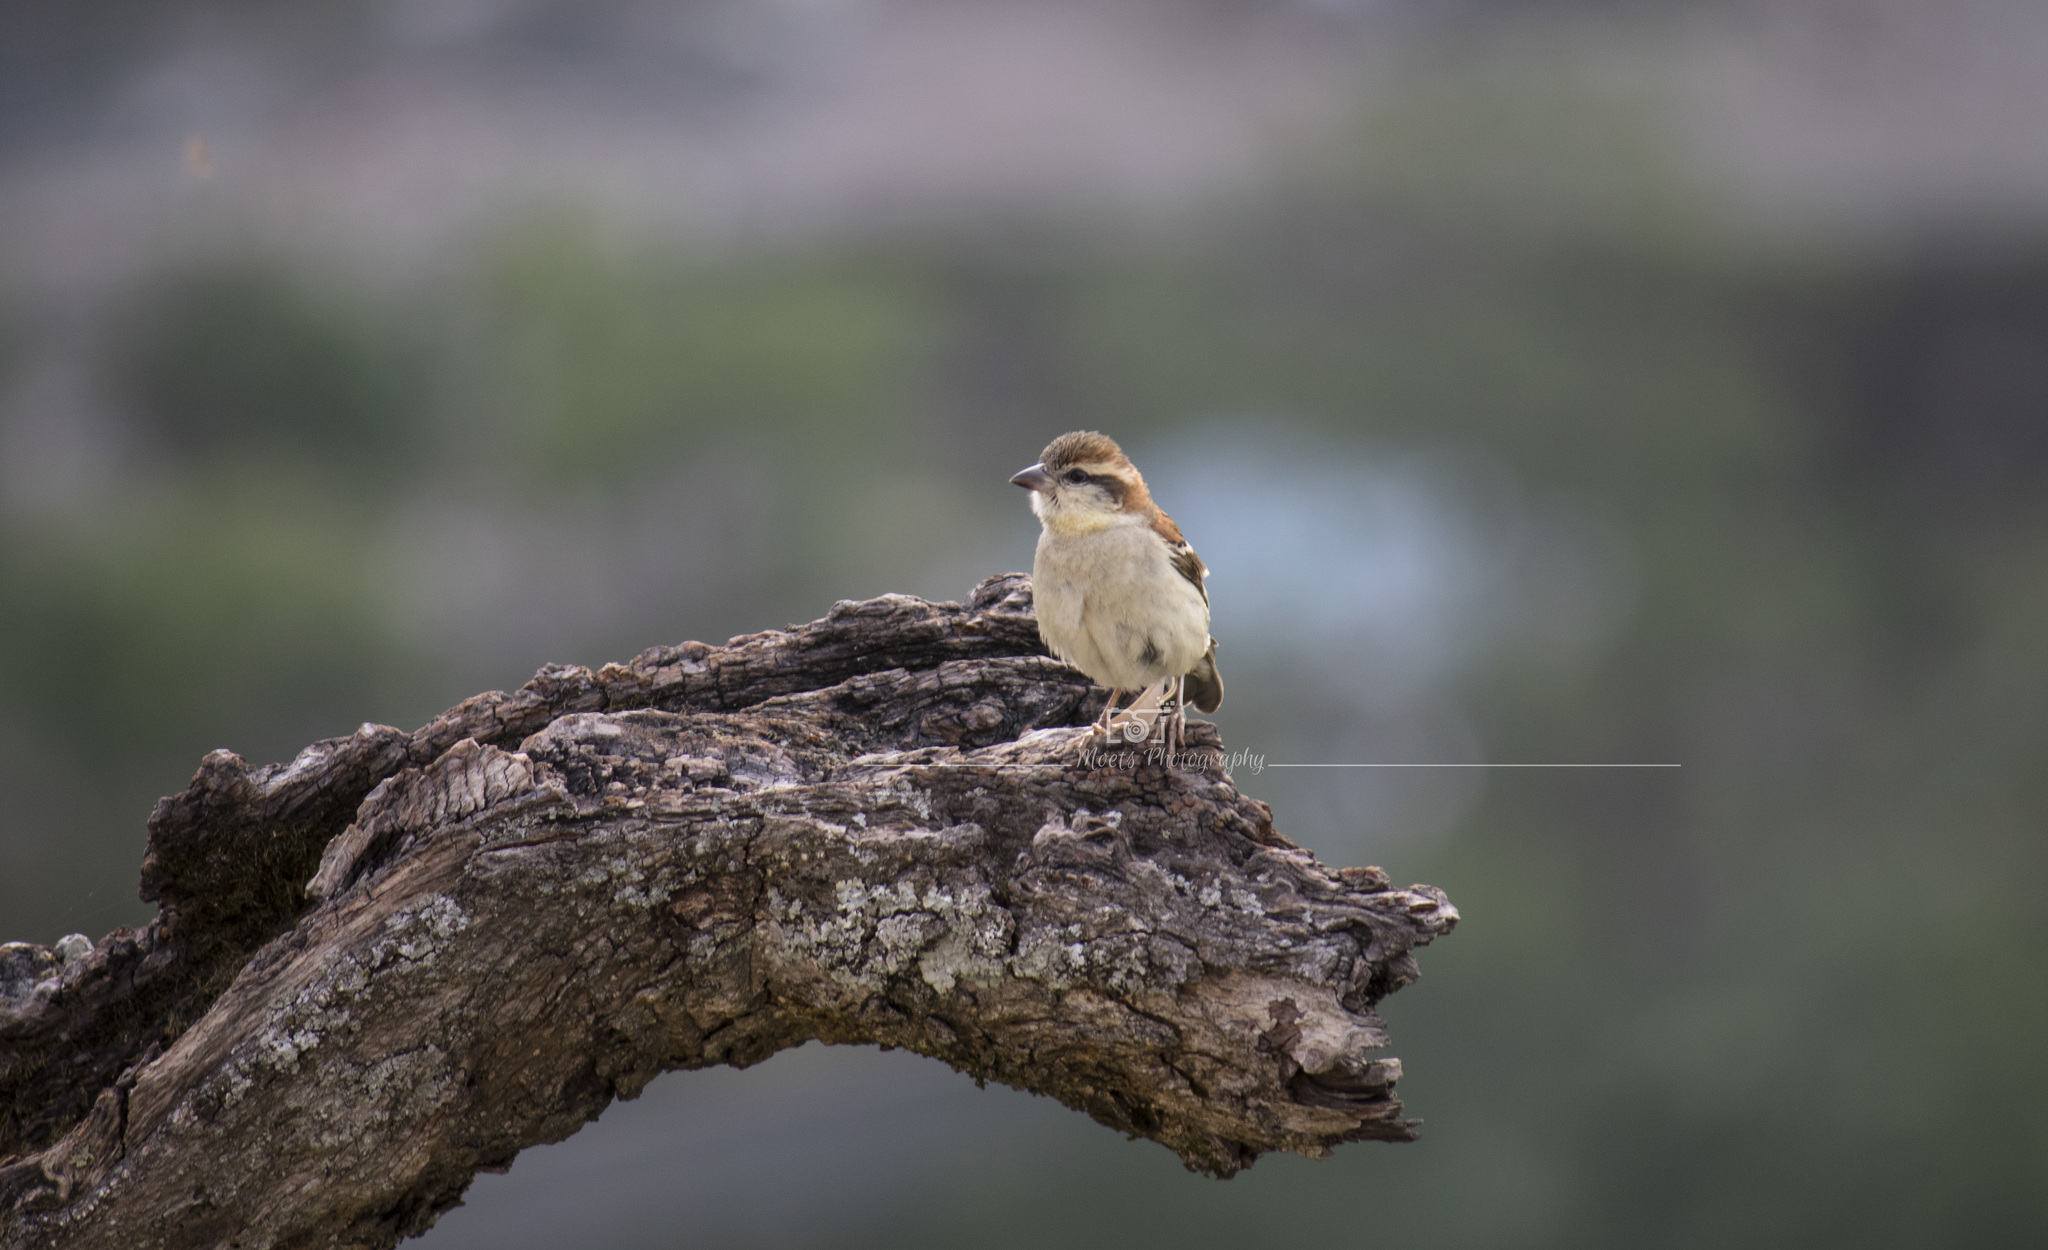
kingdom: Animalia
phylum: Chordata
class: Aves
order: Passeriformes
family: Passeridae
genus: Passer
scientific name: Passer cinnamomeus
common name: Russet sparrow
